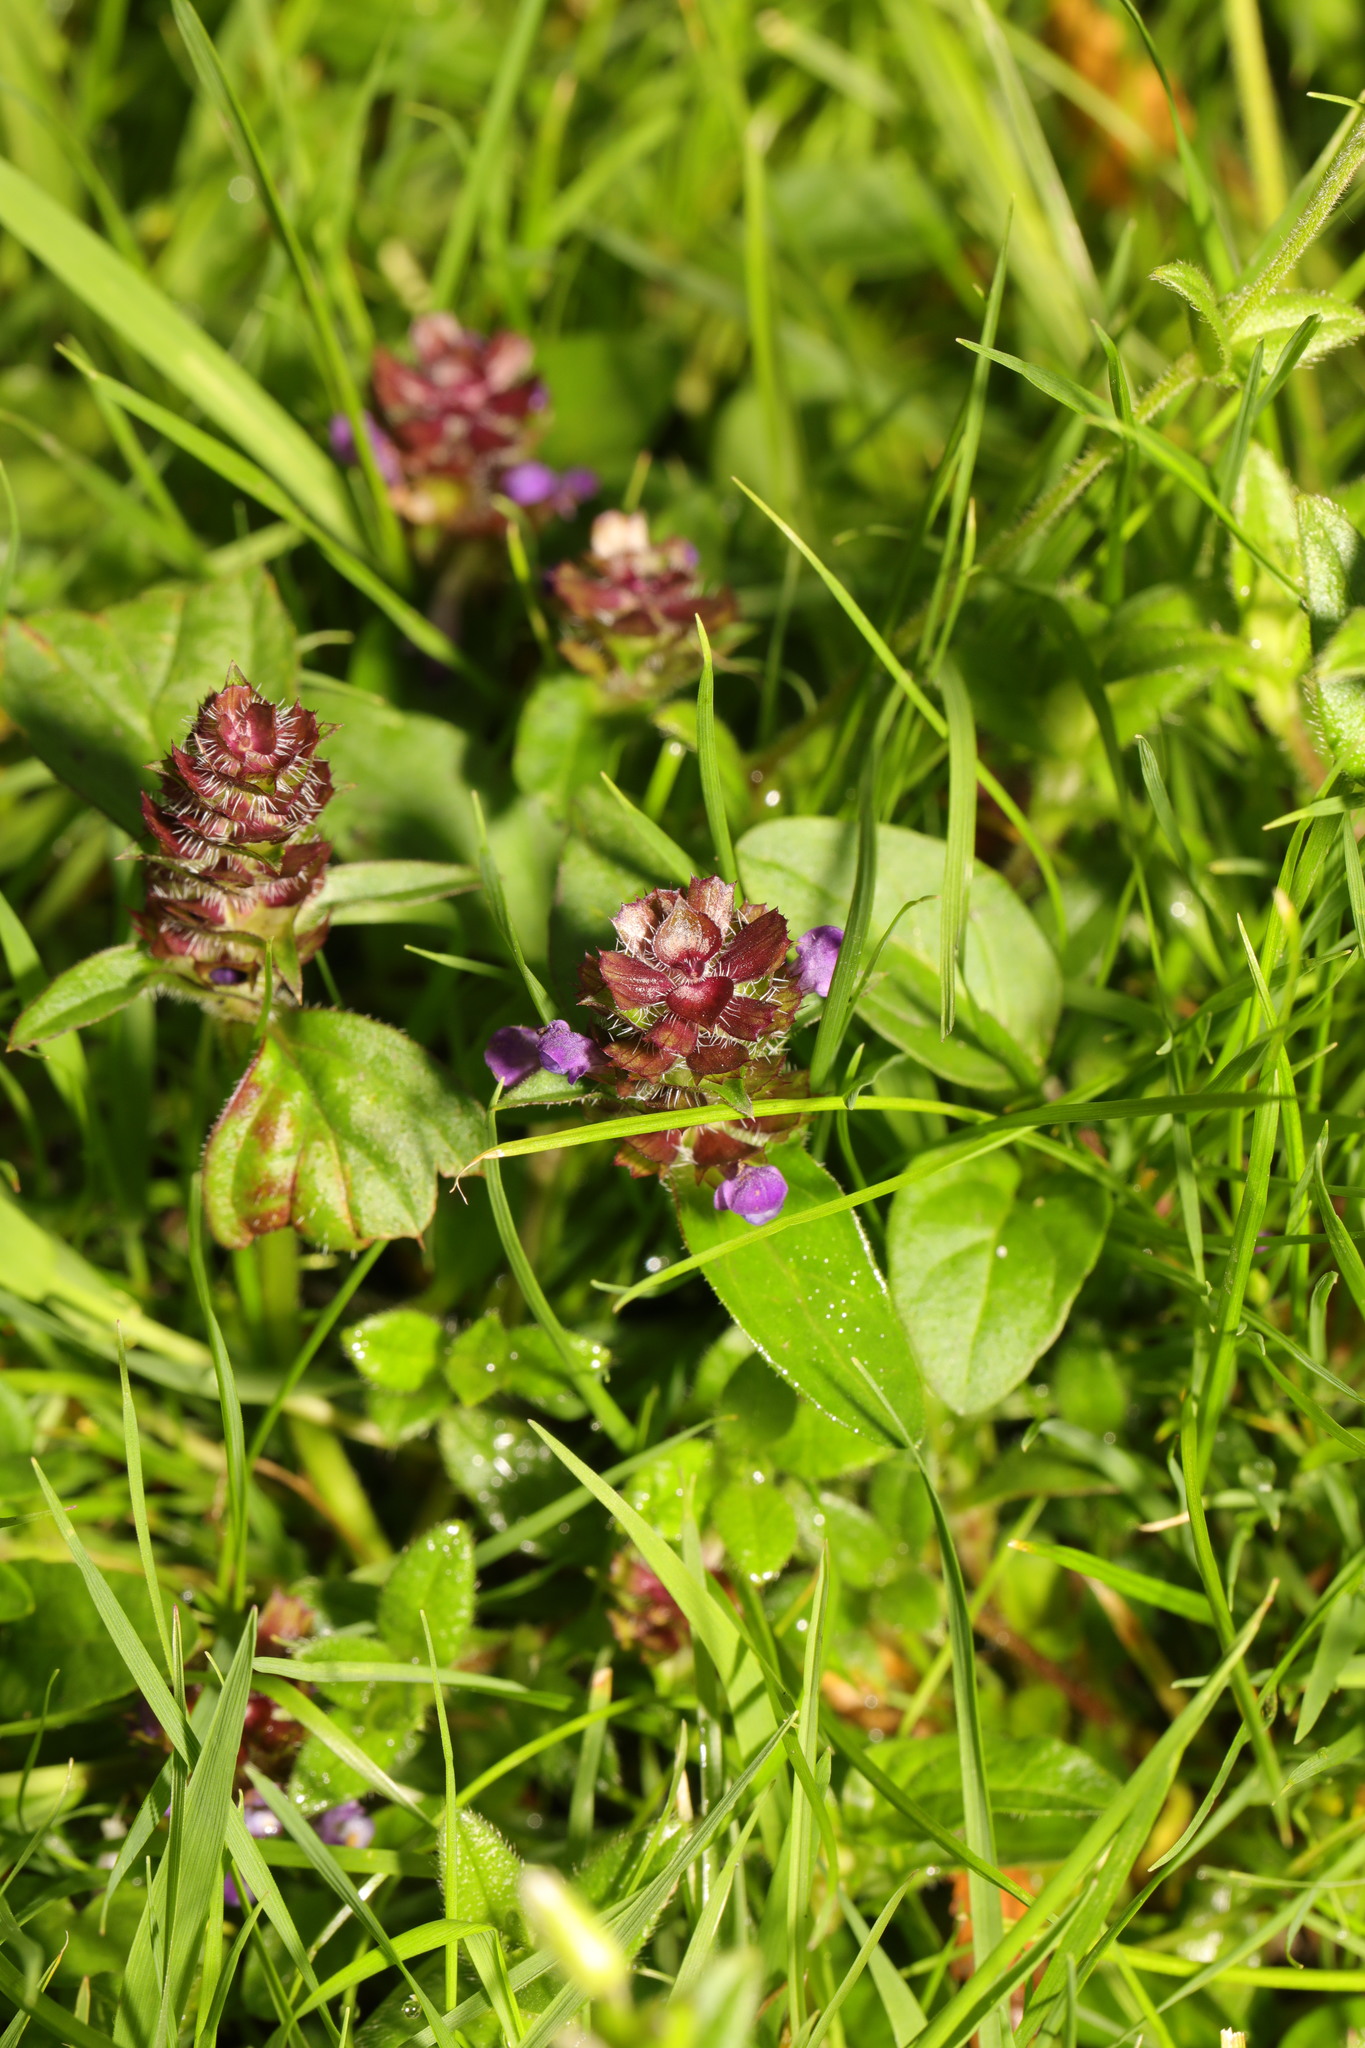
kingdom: Plantae
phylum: Tracheophyta
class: Magnoliopsida
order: Lamiales
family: Lamiaceae
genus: Prunella
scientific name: Prunella vulgaris
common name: Heal-all
